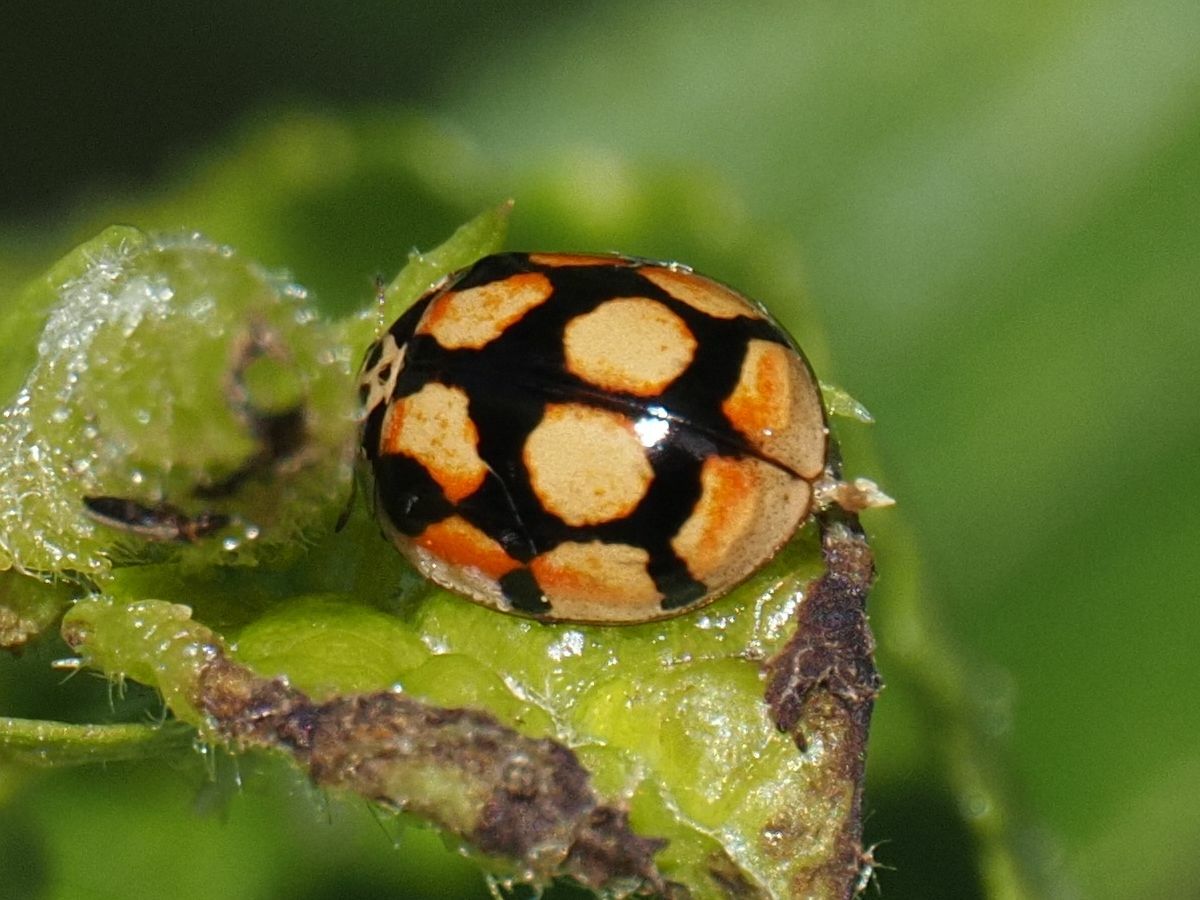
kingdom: Animalia
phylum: Arthropoda
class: Insecta
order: Coleoptera
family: Coccinellidae
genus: Adalia
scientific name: Adalia decempunctata
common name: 10-spot ladybird
